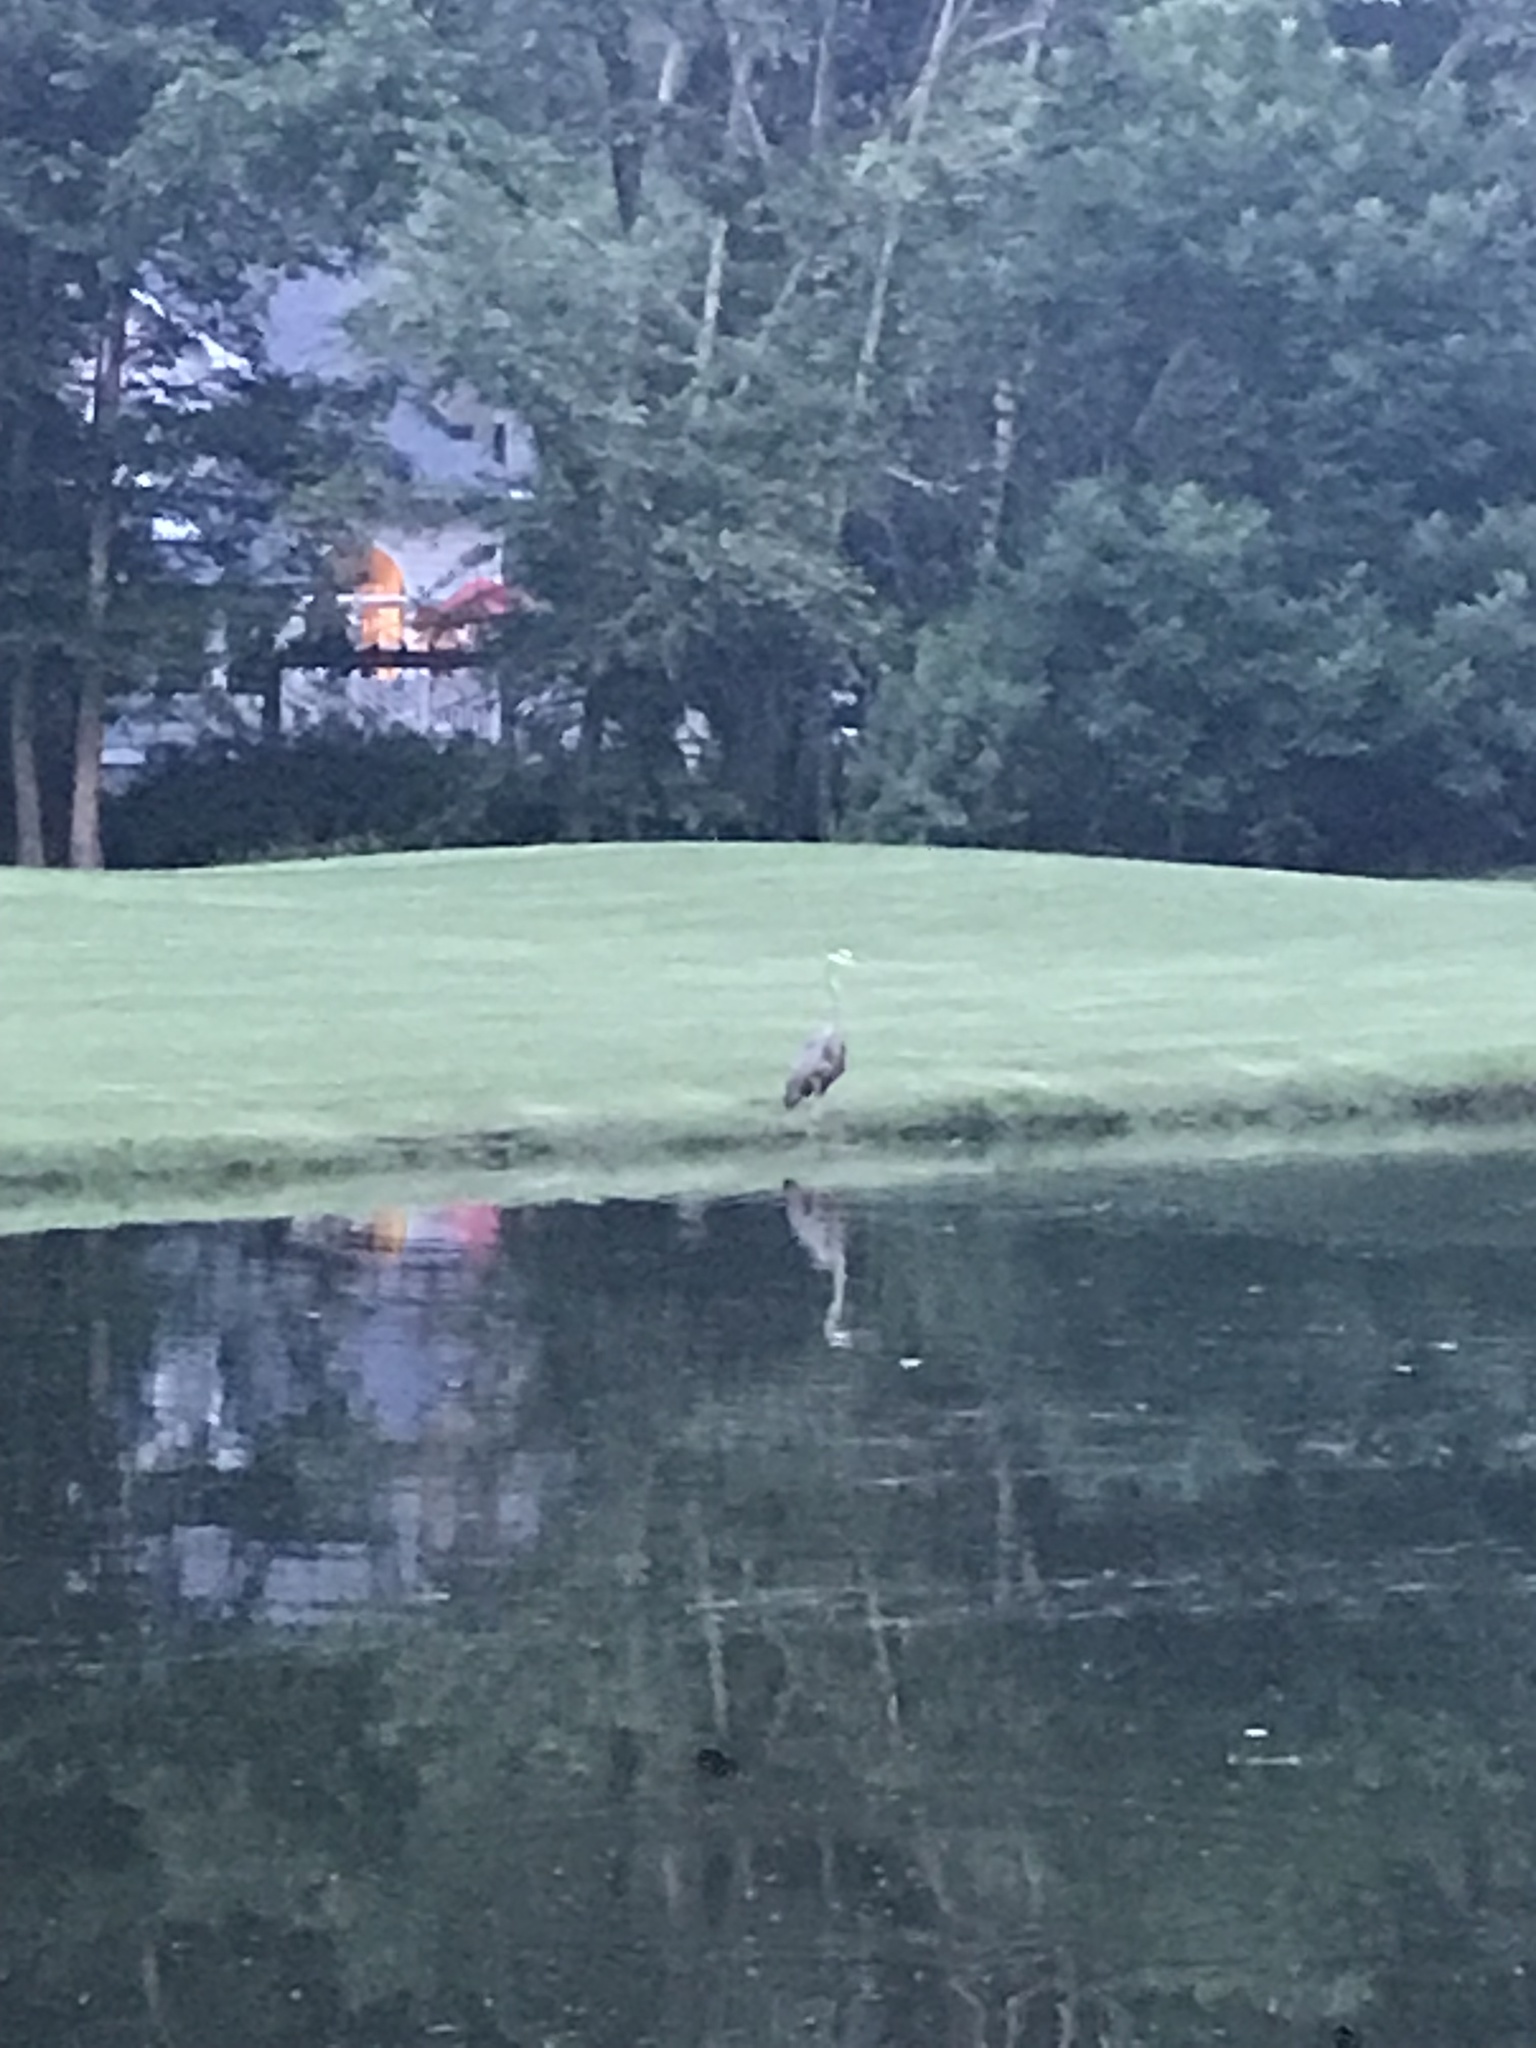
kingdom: Animalia
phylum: Chordata
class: Aves
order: Pelecaniformes
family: Ardeidae
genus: Ardea
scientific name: Ardea herodias
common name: Great blue heron
